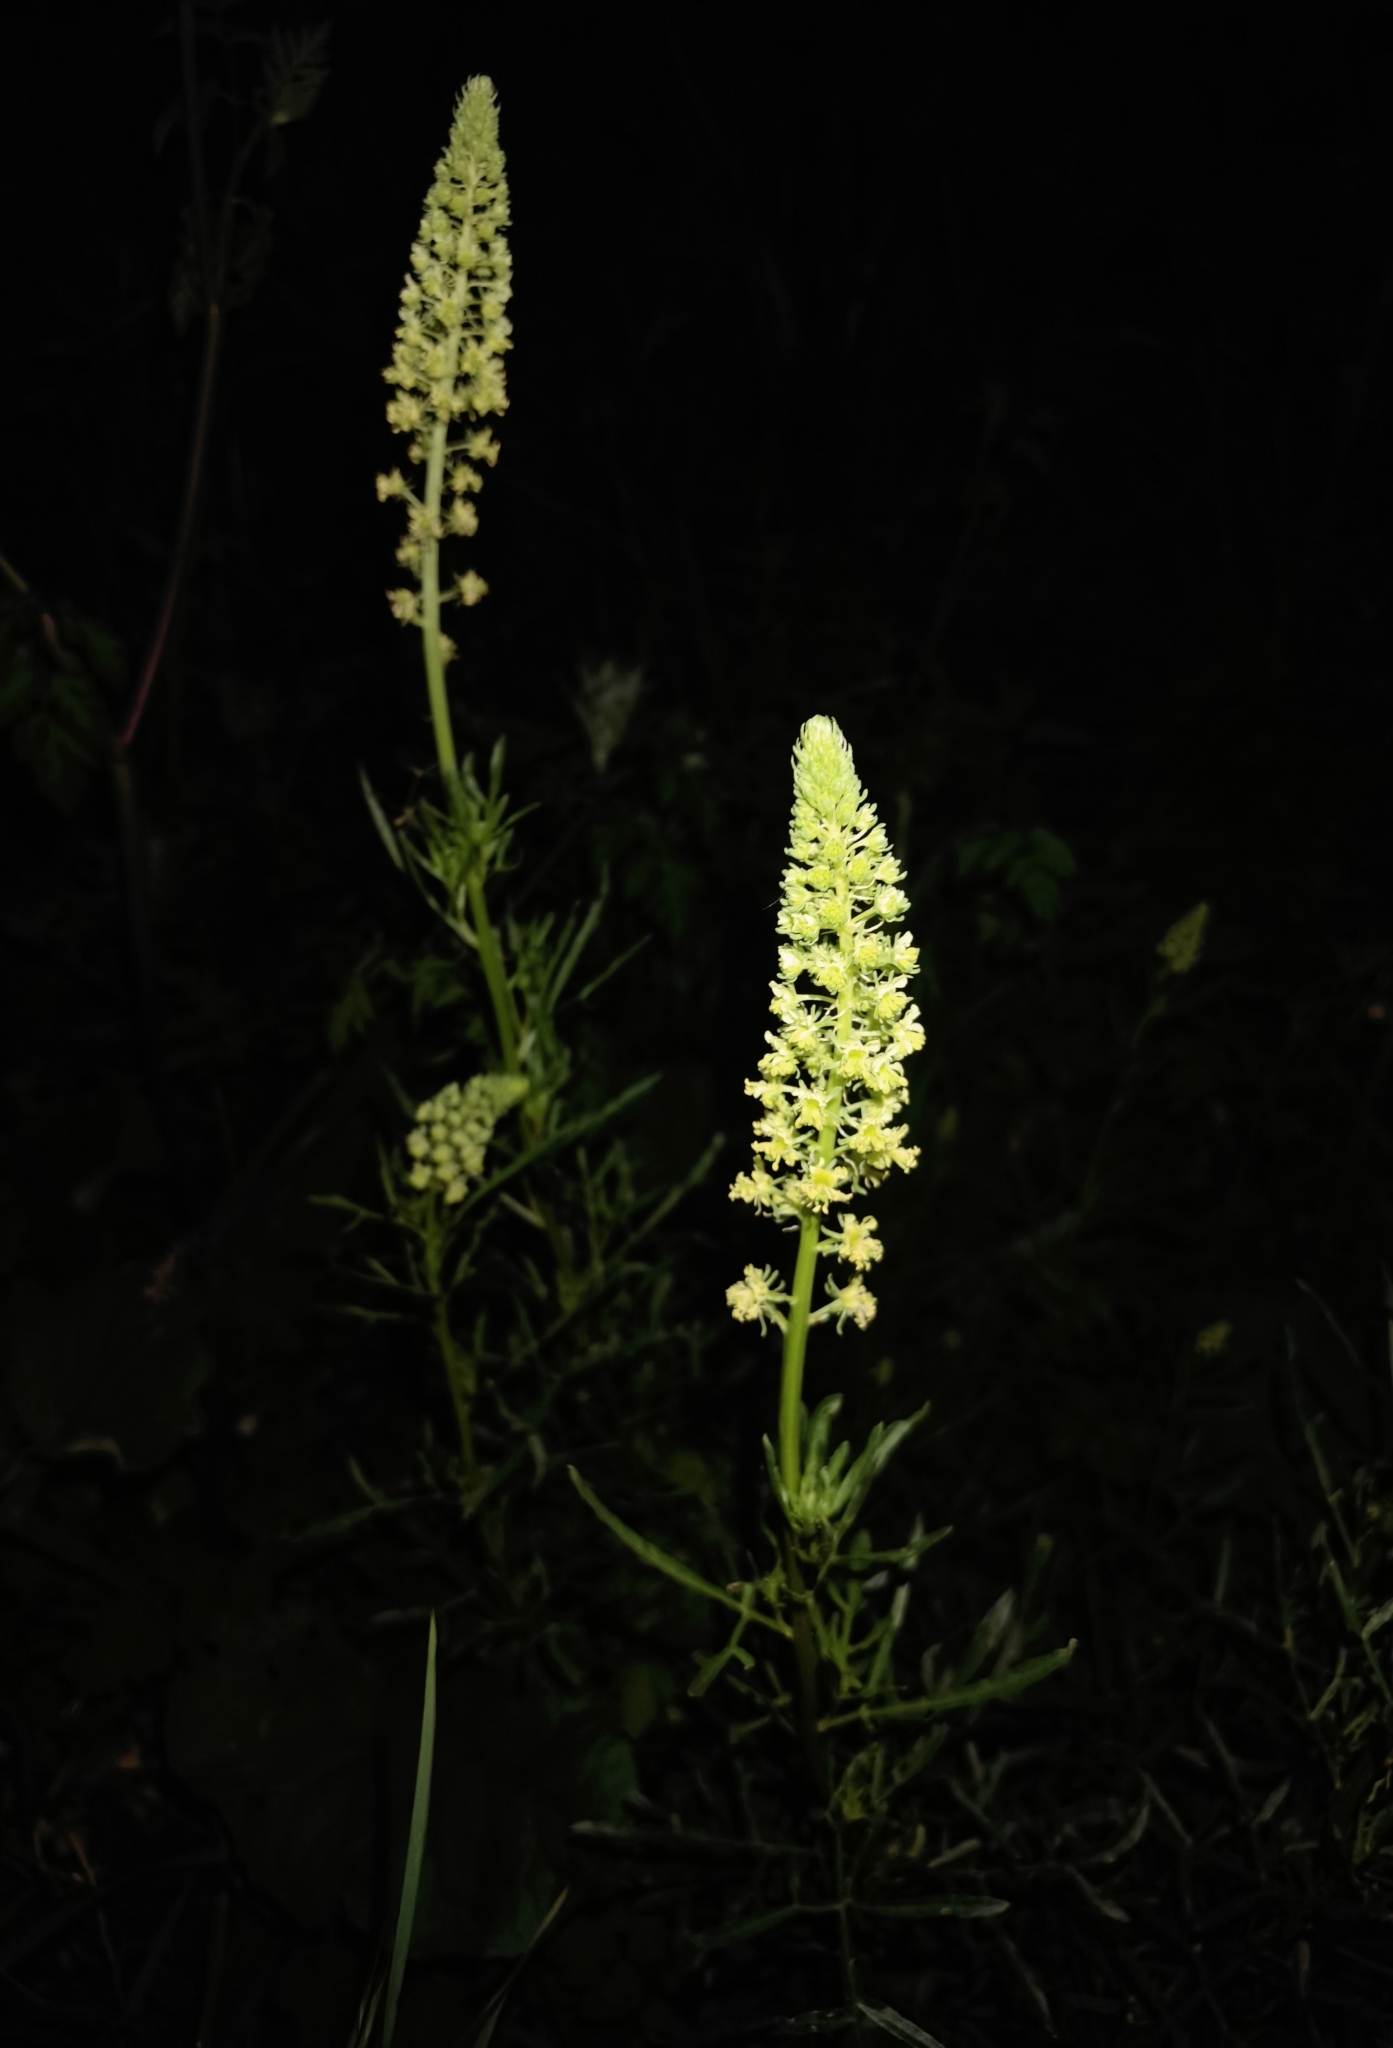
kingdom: Plantae
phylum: Tracheophyta
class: Magnoliopsida
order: Brassicales
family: Resedaceae
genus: Reseda
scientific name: Reseda lutea
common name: Wild mignonette
